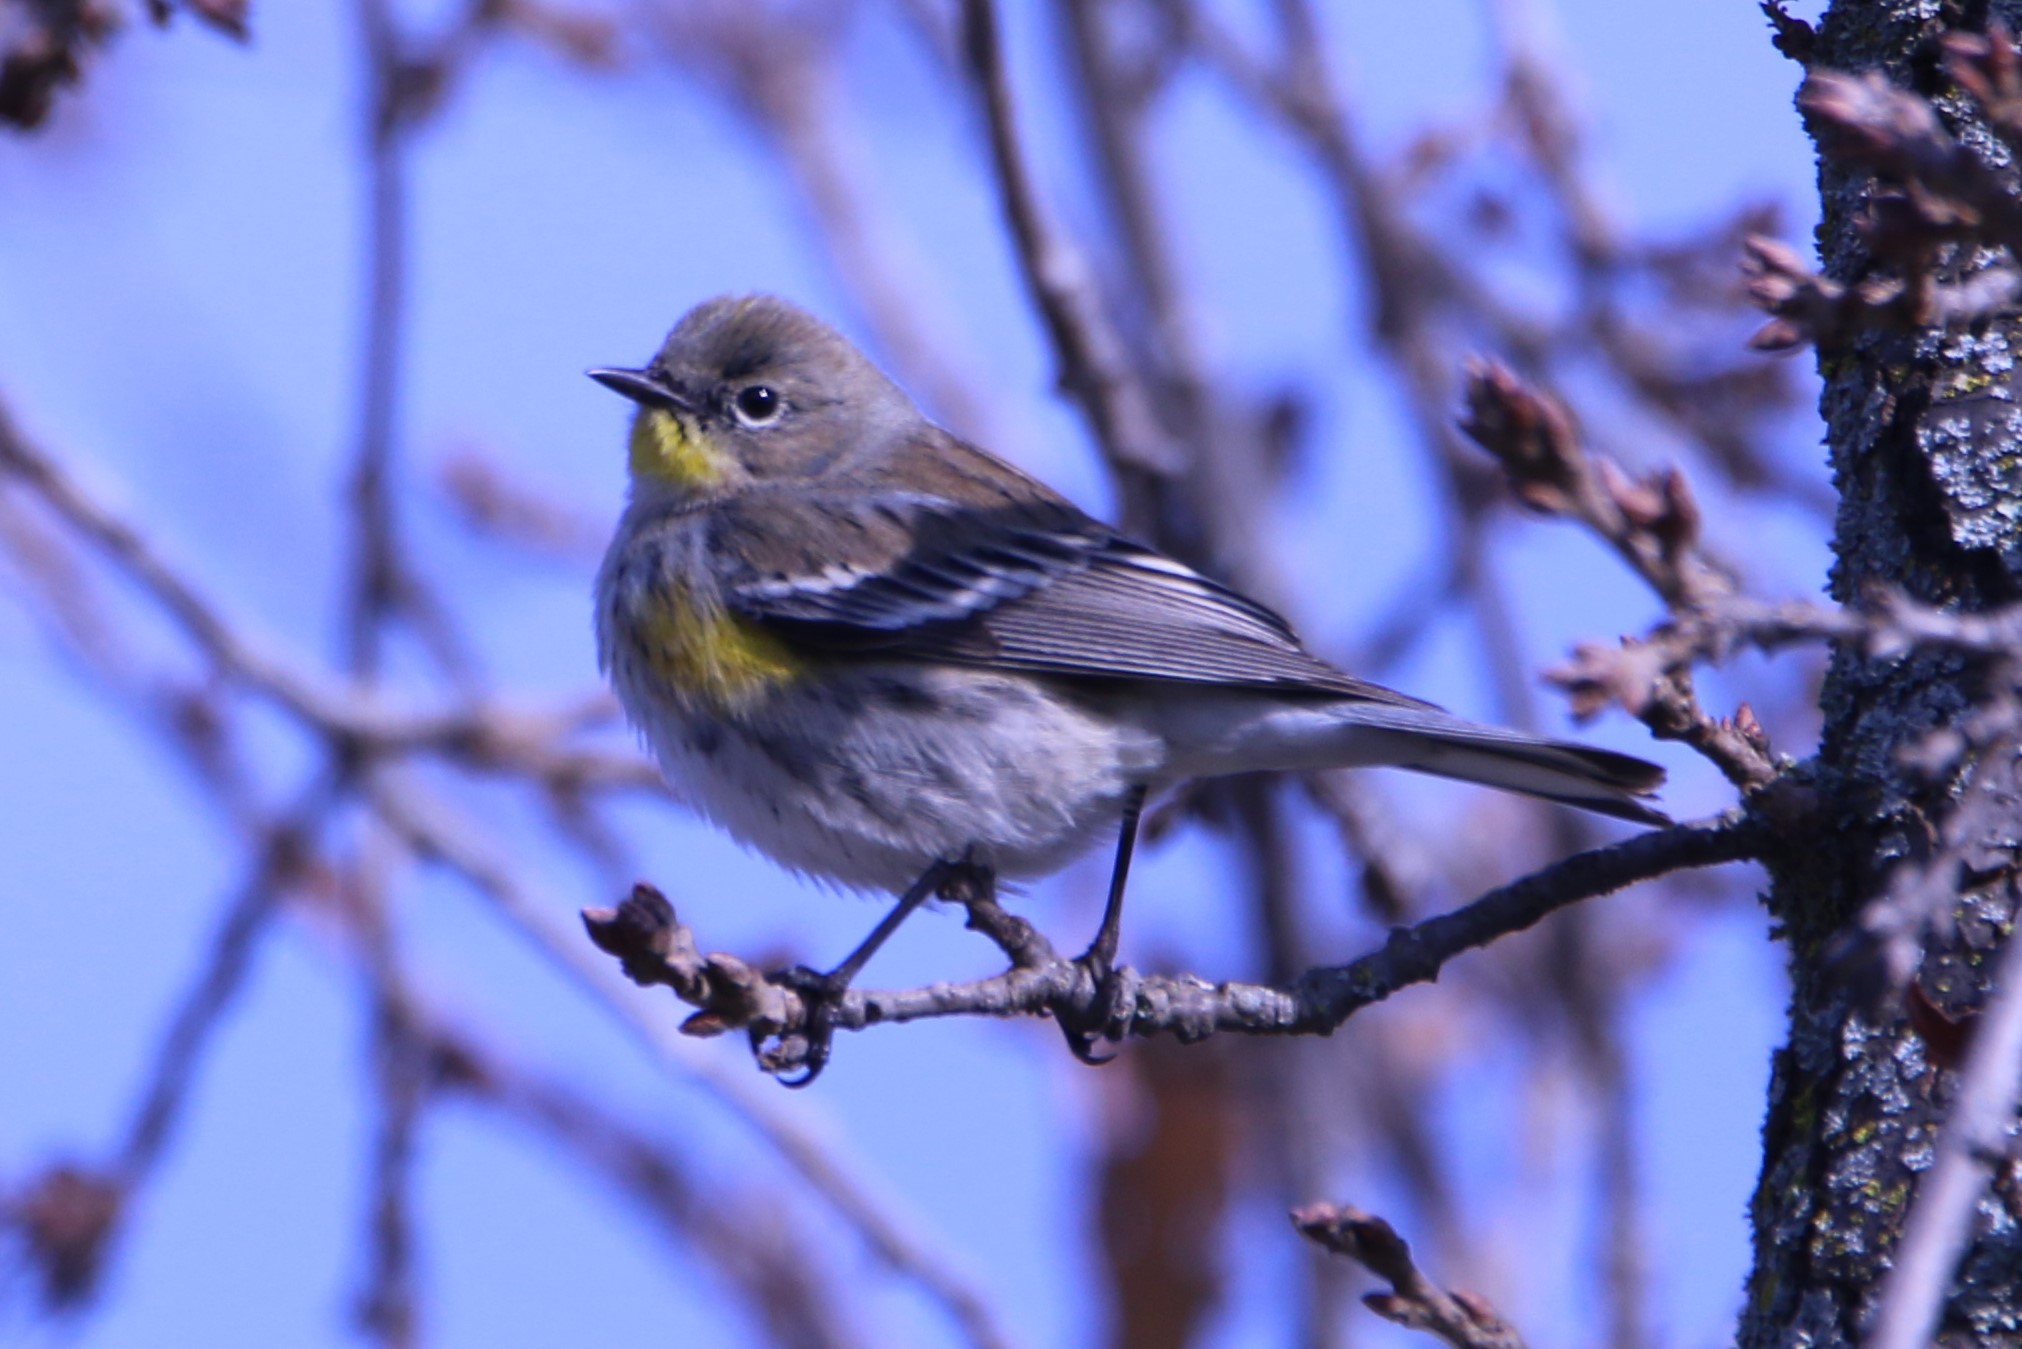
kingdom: Animalia
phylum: Chordata
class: Aves
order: Passeriformes
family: Parulidae
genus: Setophaga
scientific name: Setophaga coronata
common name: Myrtle warbler
